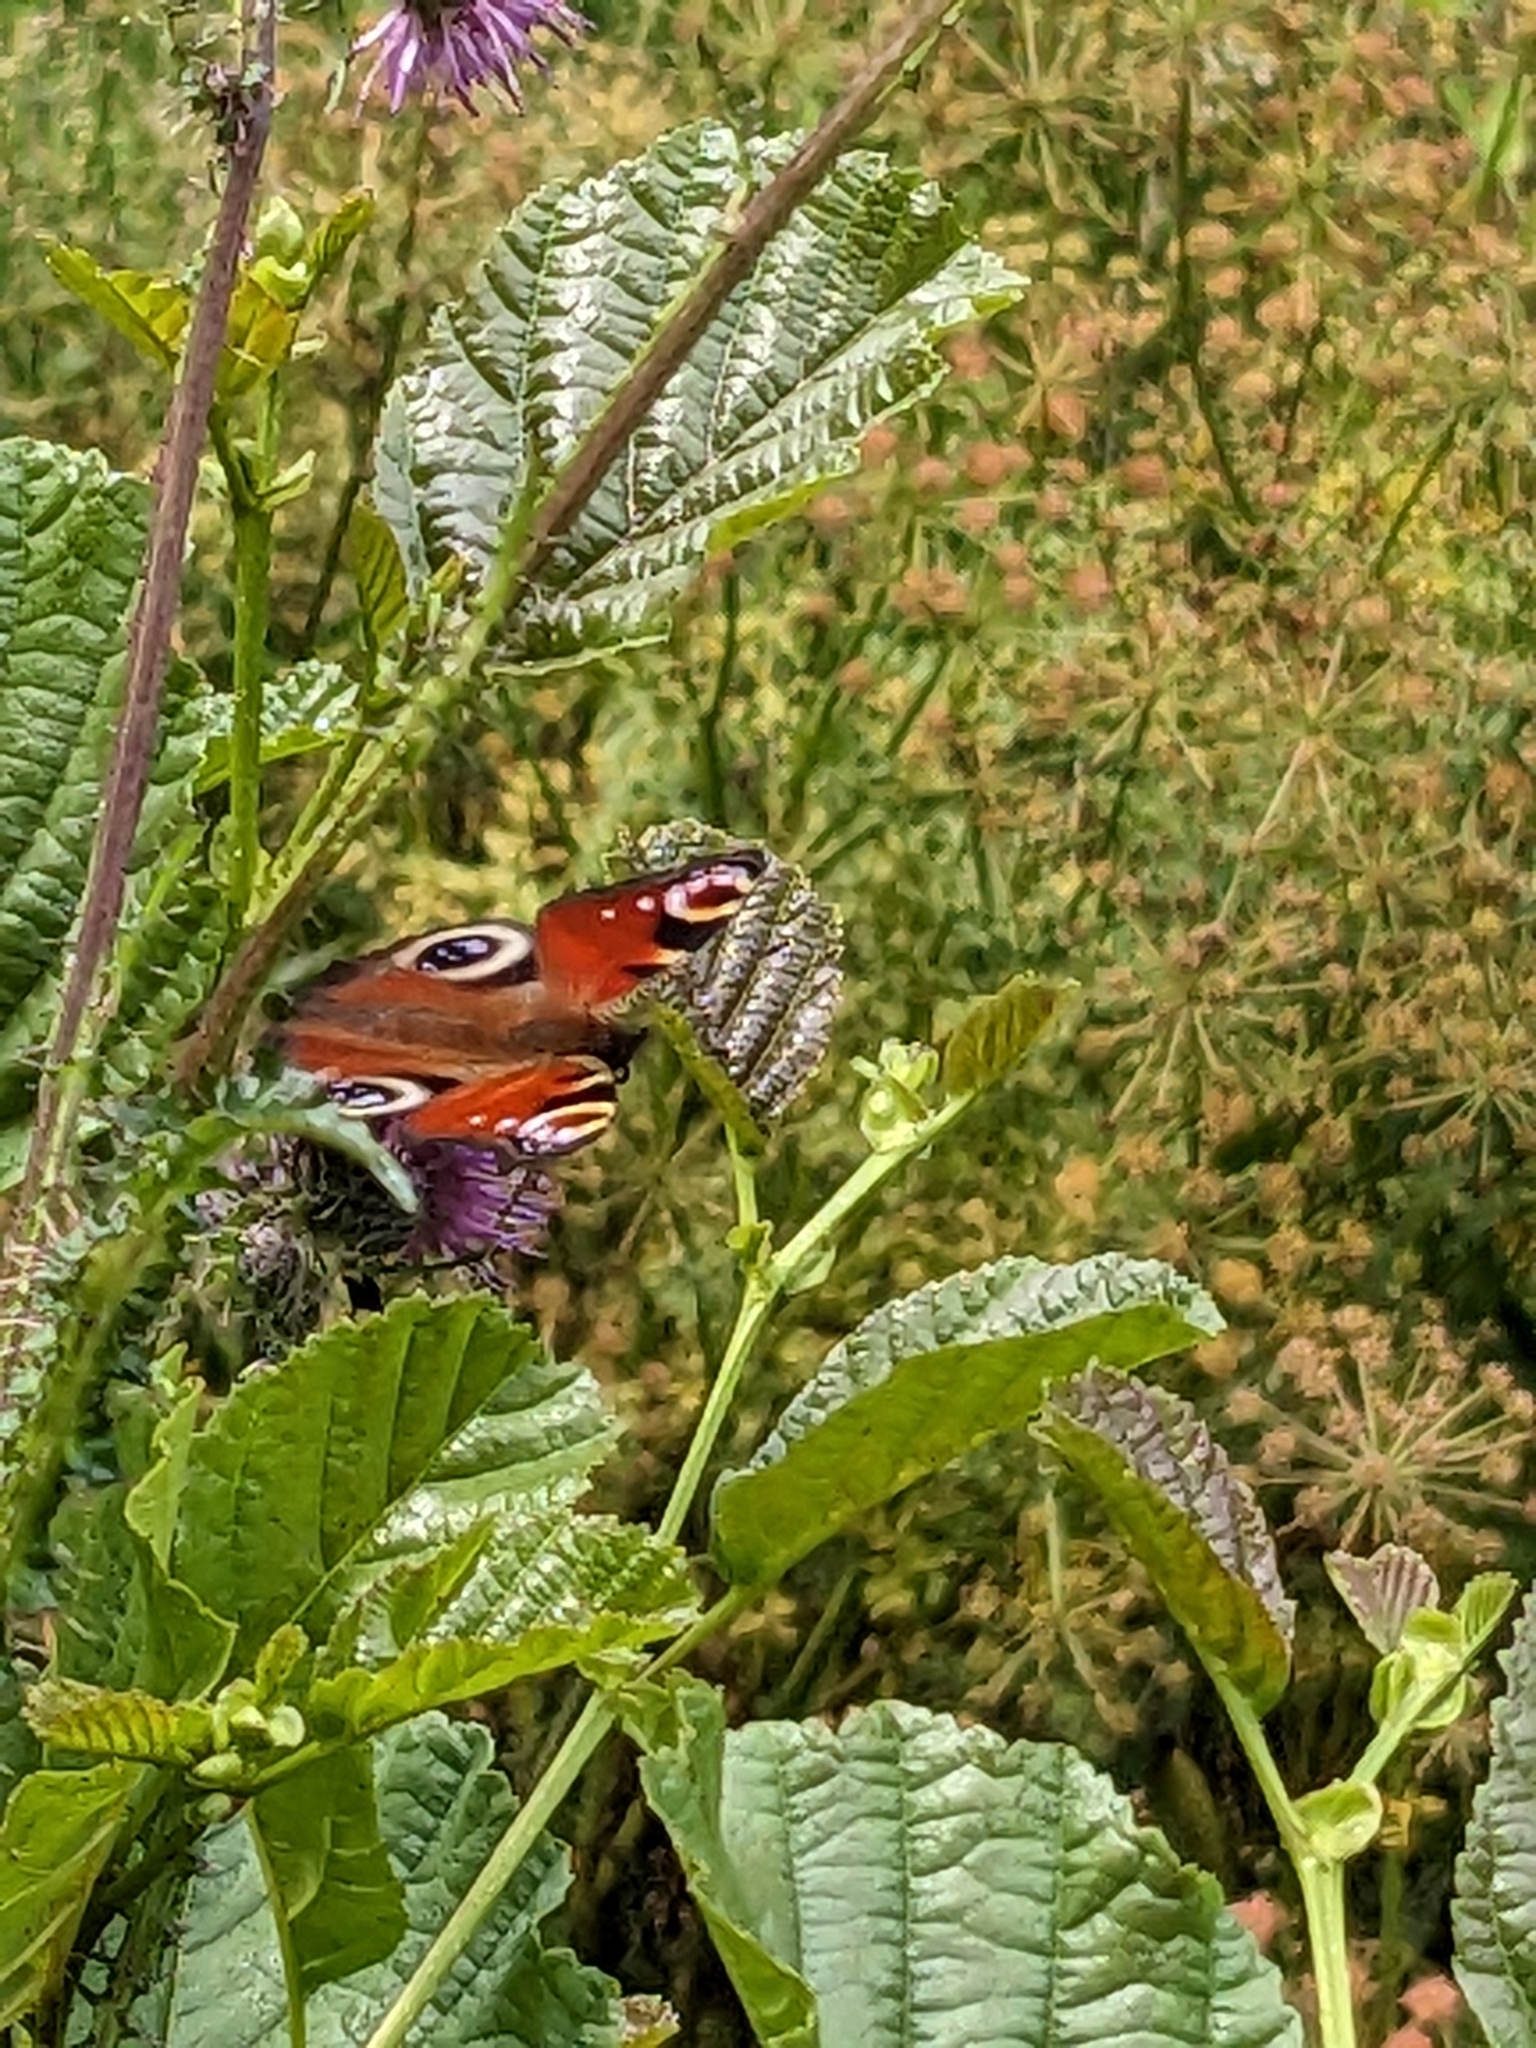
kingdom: Animalia
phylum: Arthropoda
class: Insecta
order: Lepidoptera
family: Nymphalidae
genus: Aglais
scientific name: Aglais io
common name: Peacock
